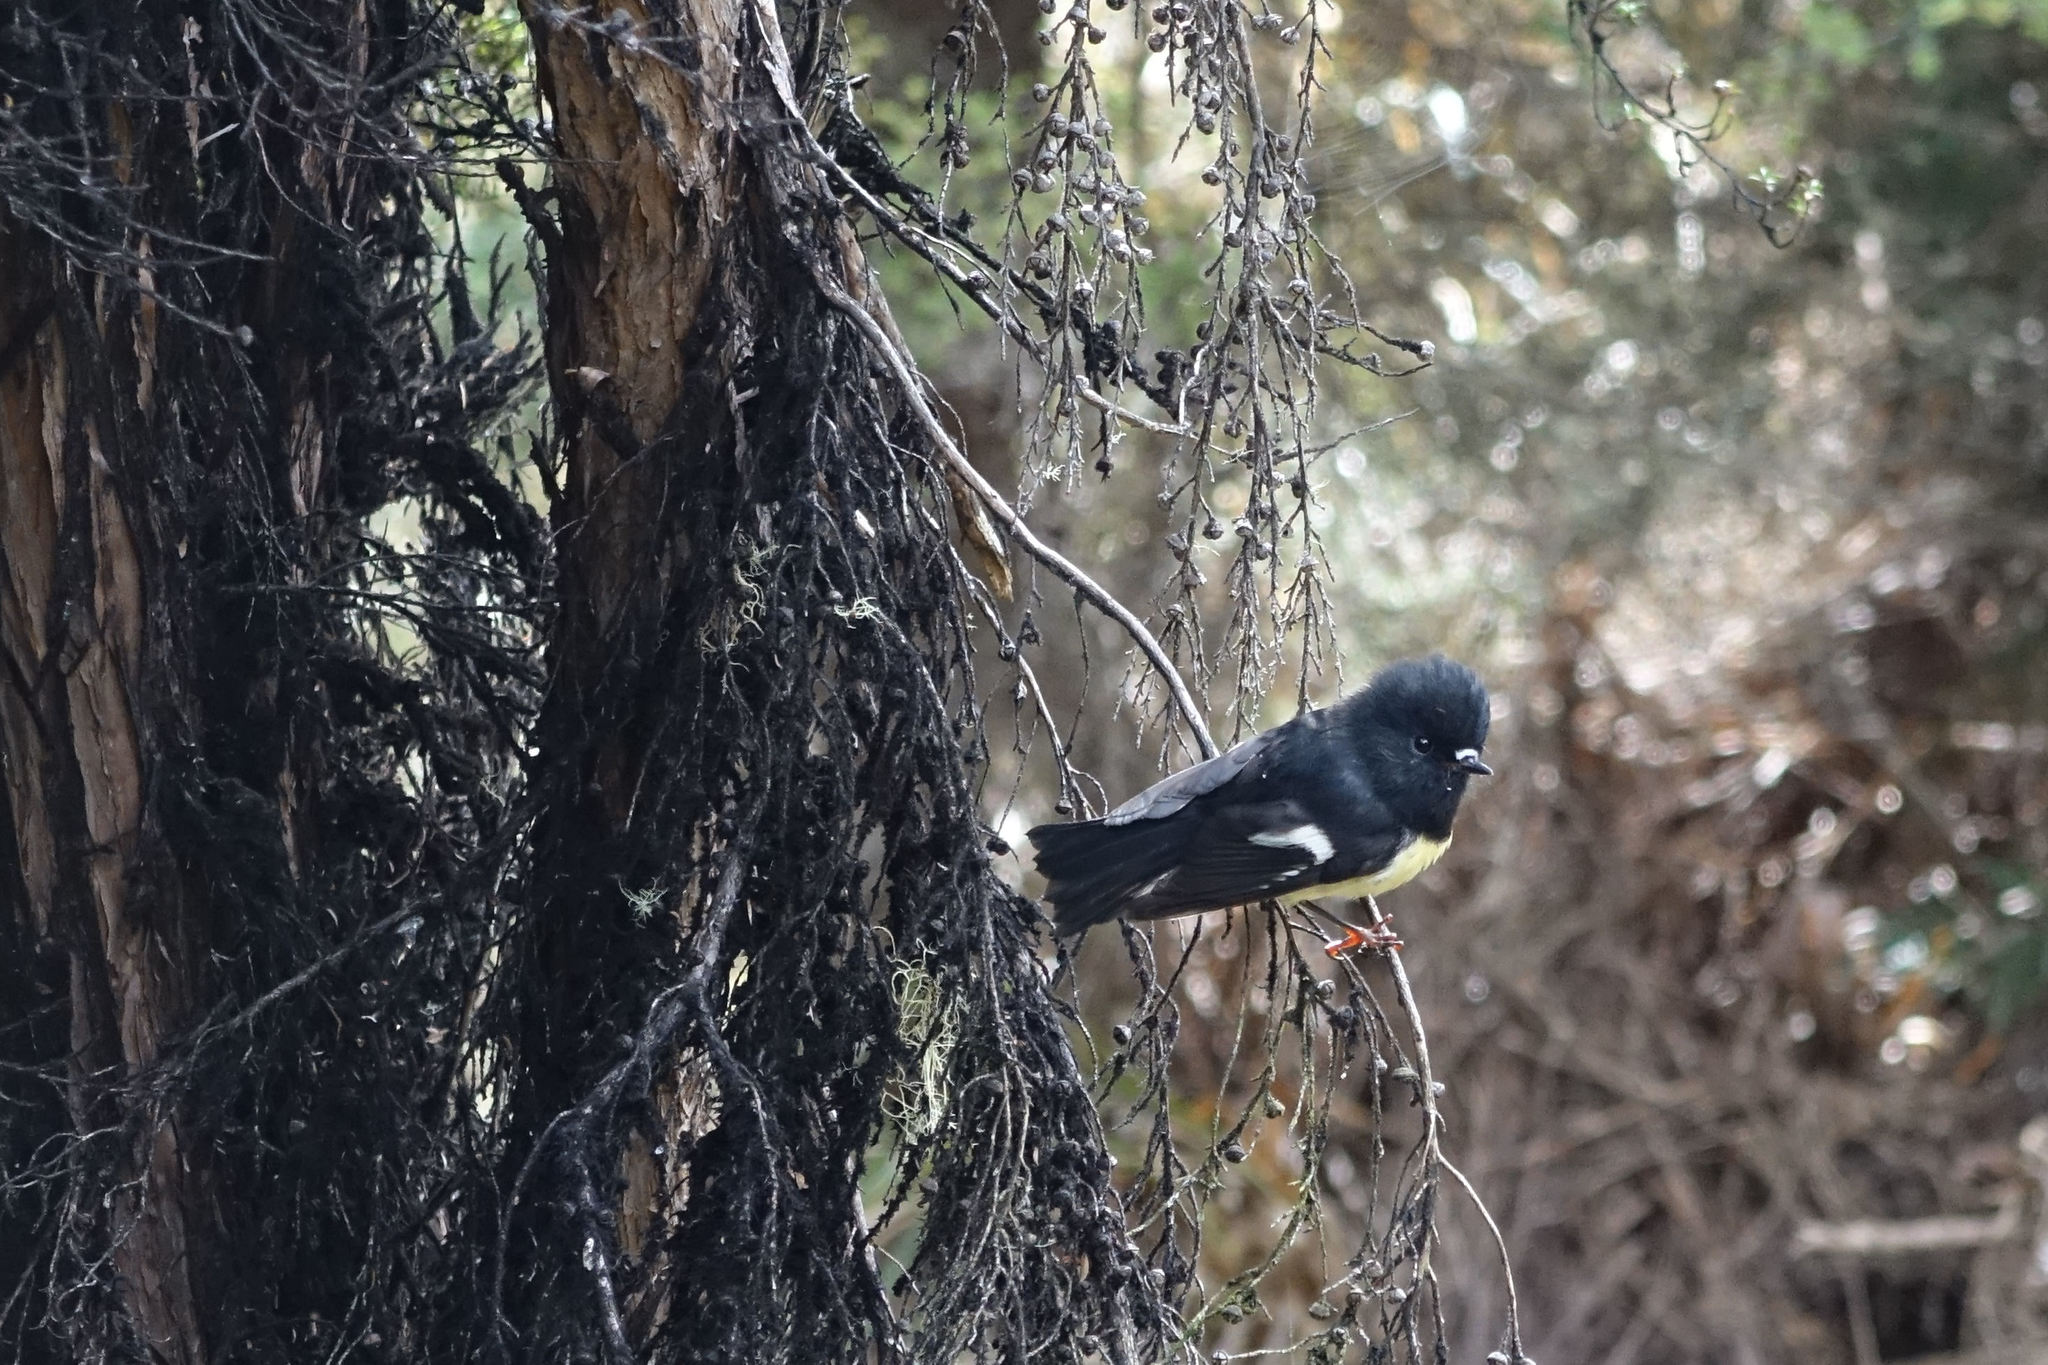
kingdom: Animalia
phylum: Chordata
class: Aves
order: Passeriformes
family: Petroicidae
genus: Petroica
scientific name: Petroica macrocephala
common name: Tomtit
